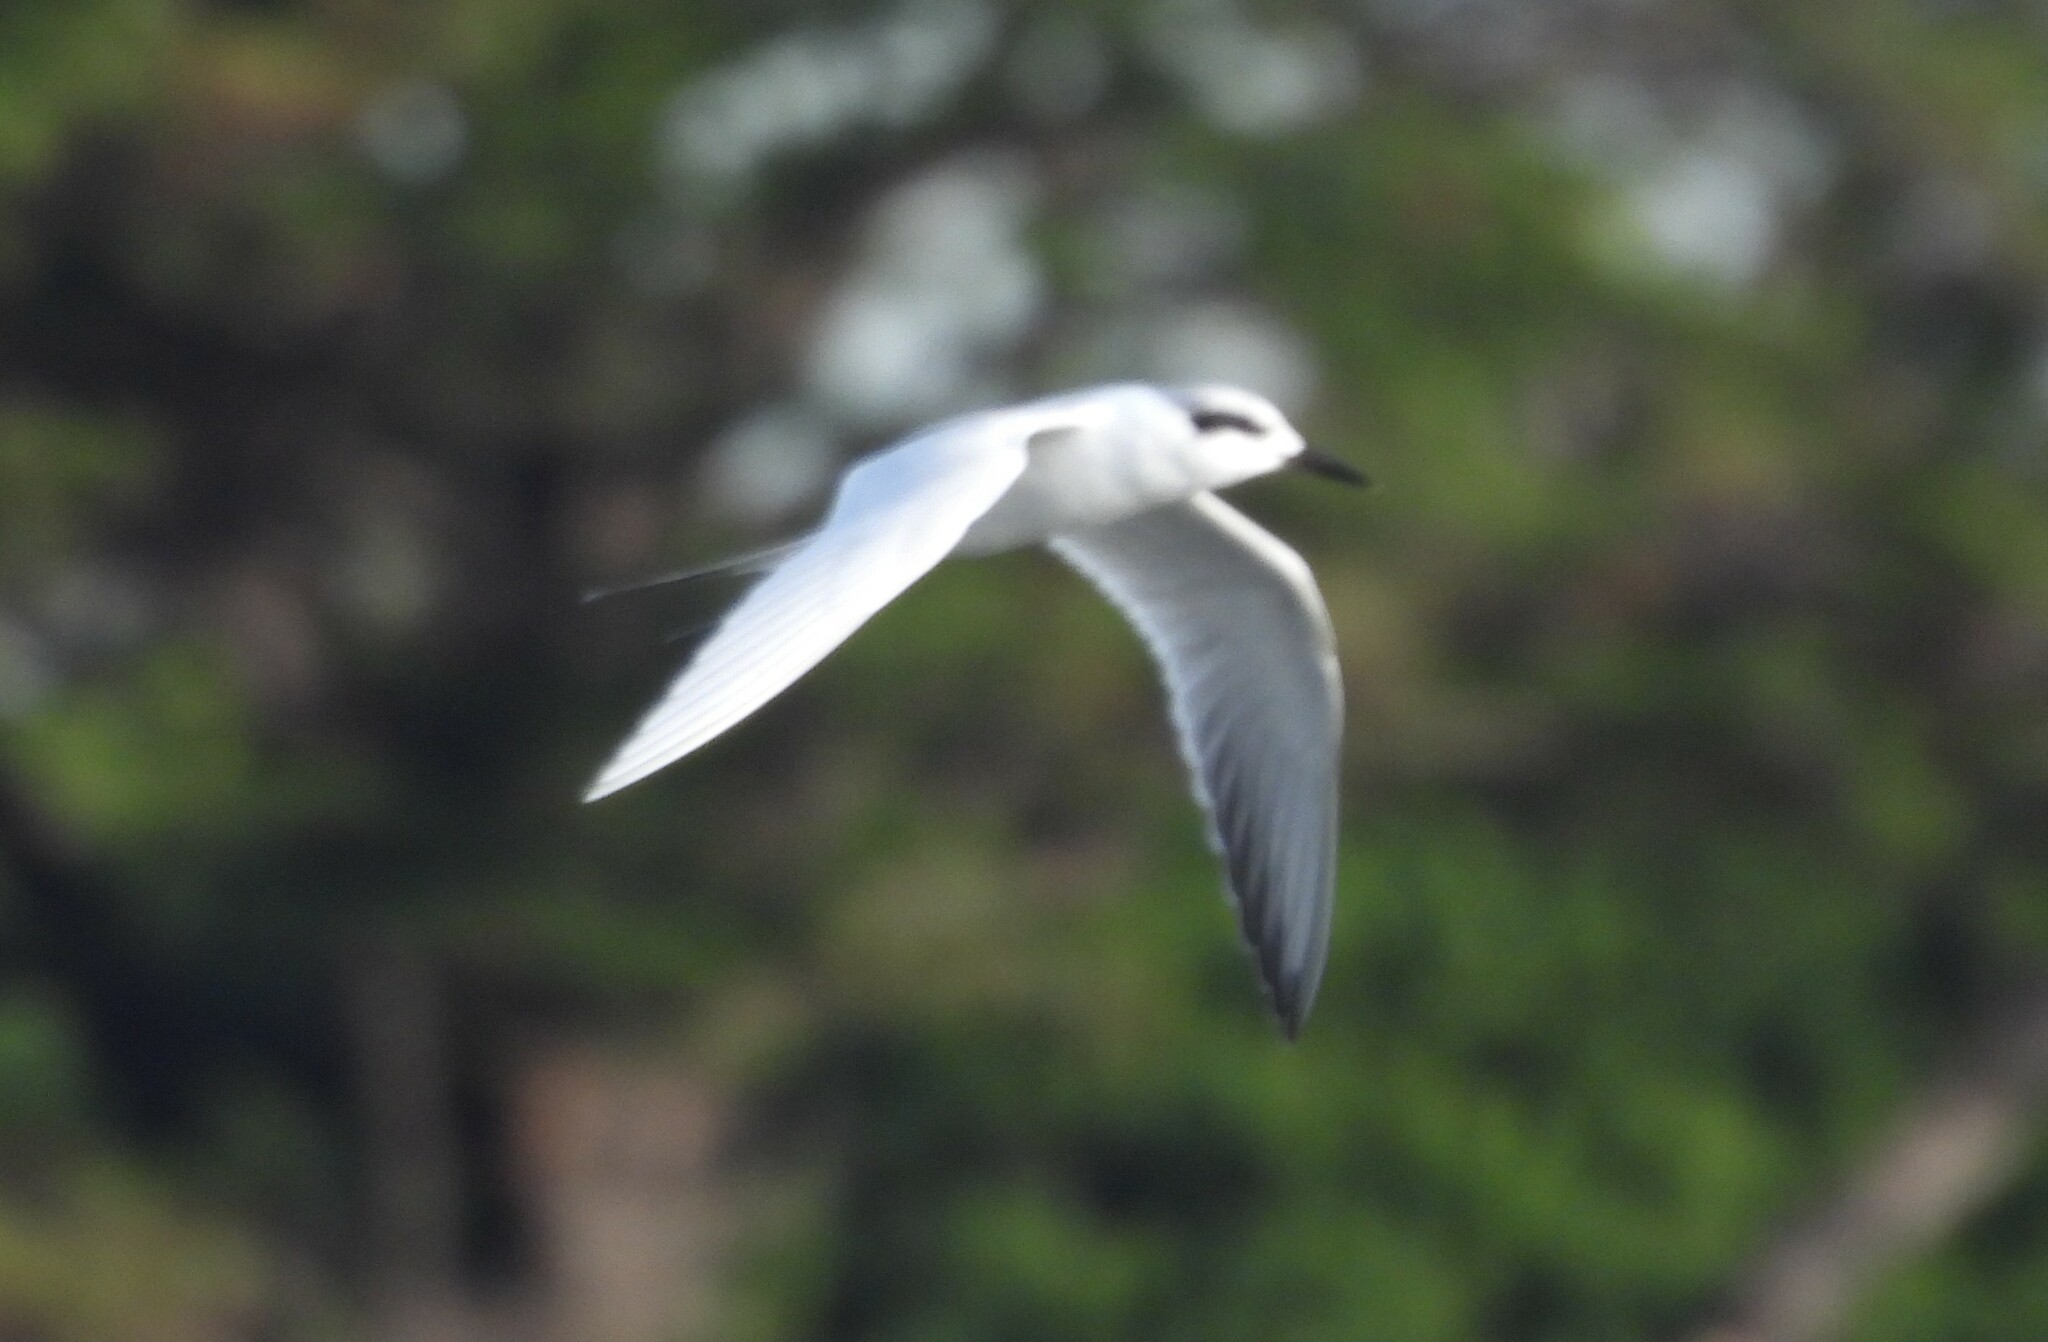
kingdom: Animalia
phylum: Chordata
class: Aves
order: Charadriiformes
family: Laridae
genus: Sterna
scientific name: Sterna forsteri
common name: Forster's tern
